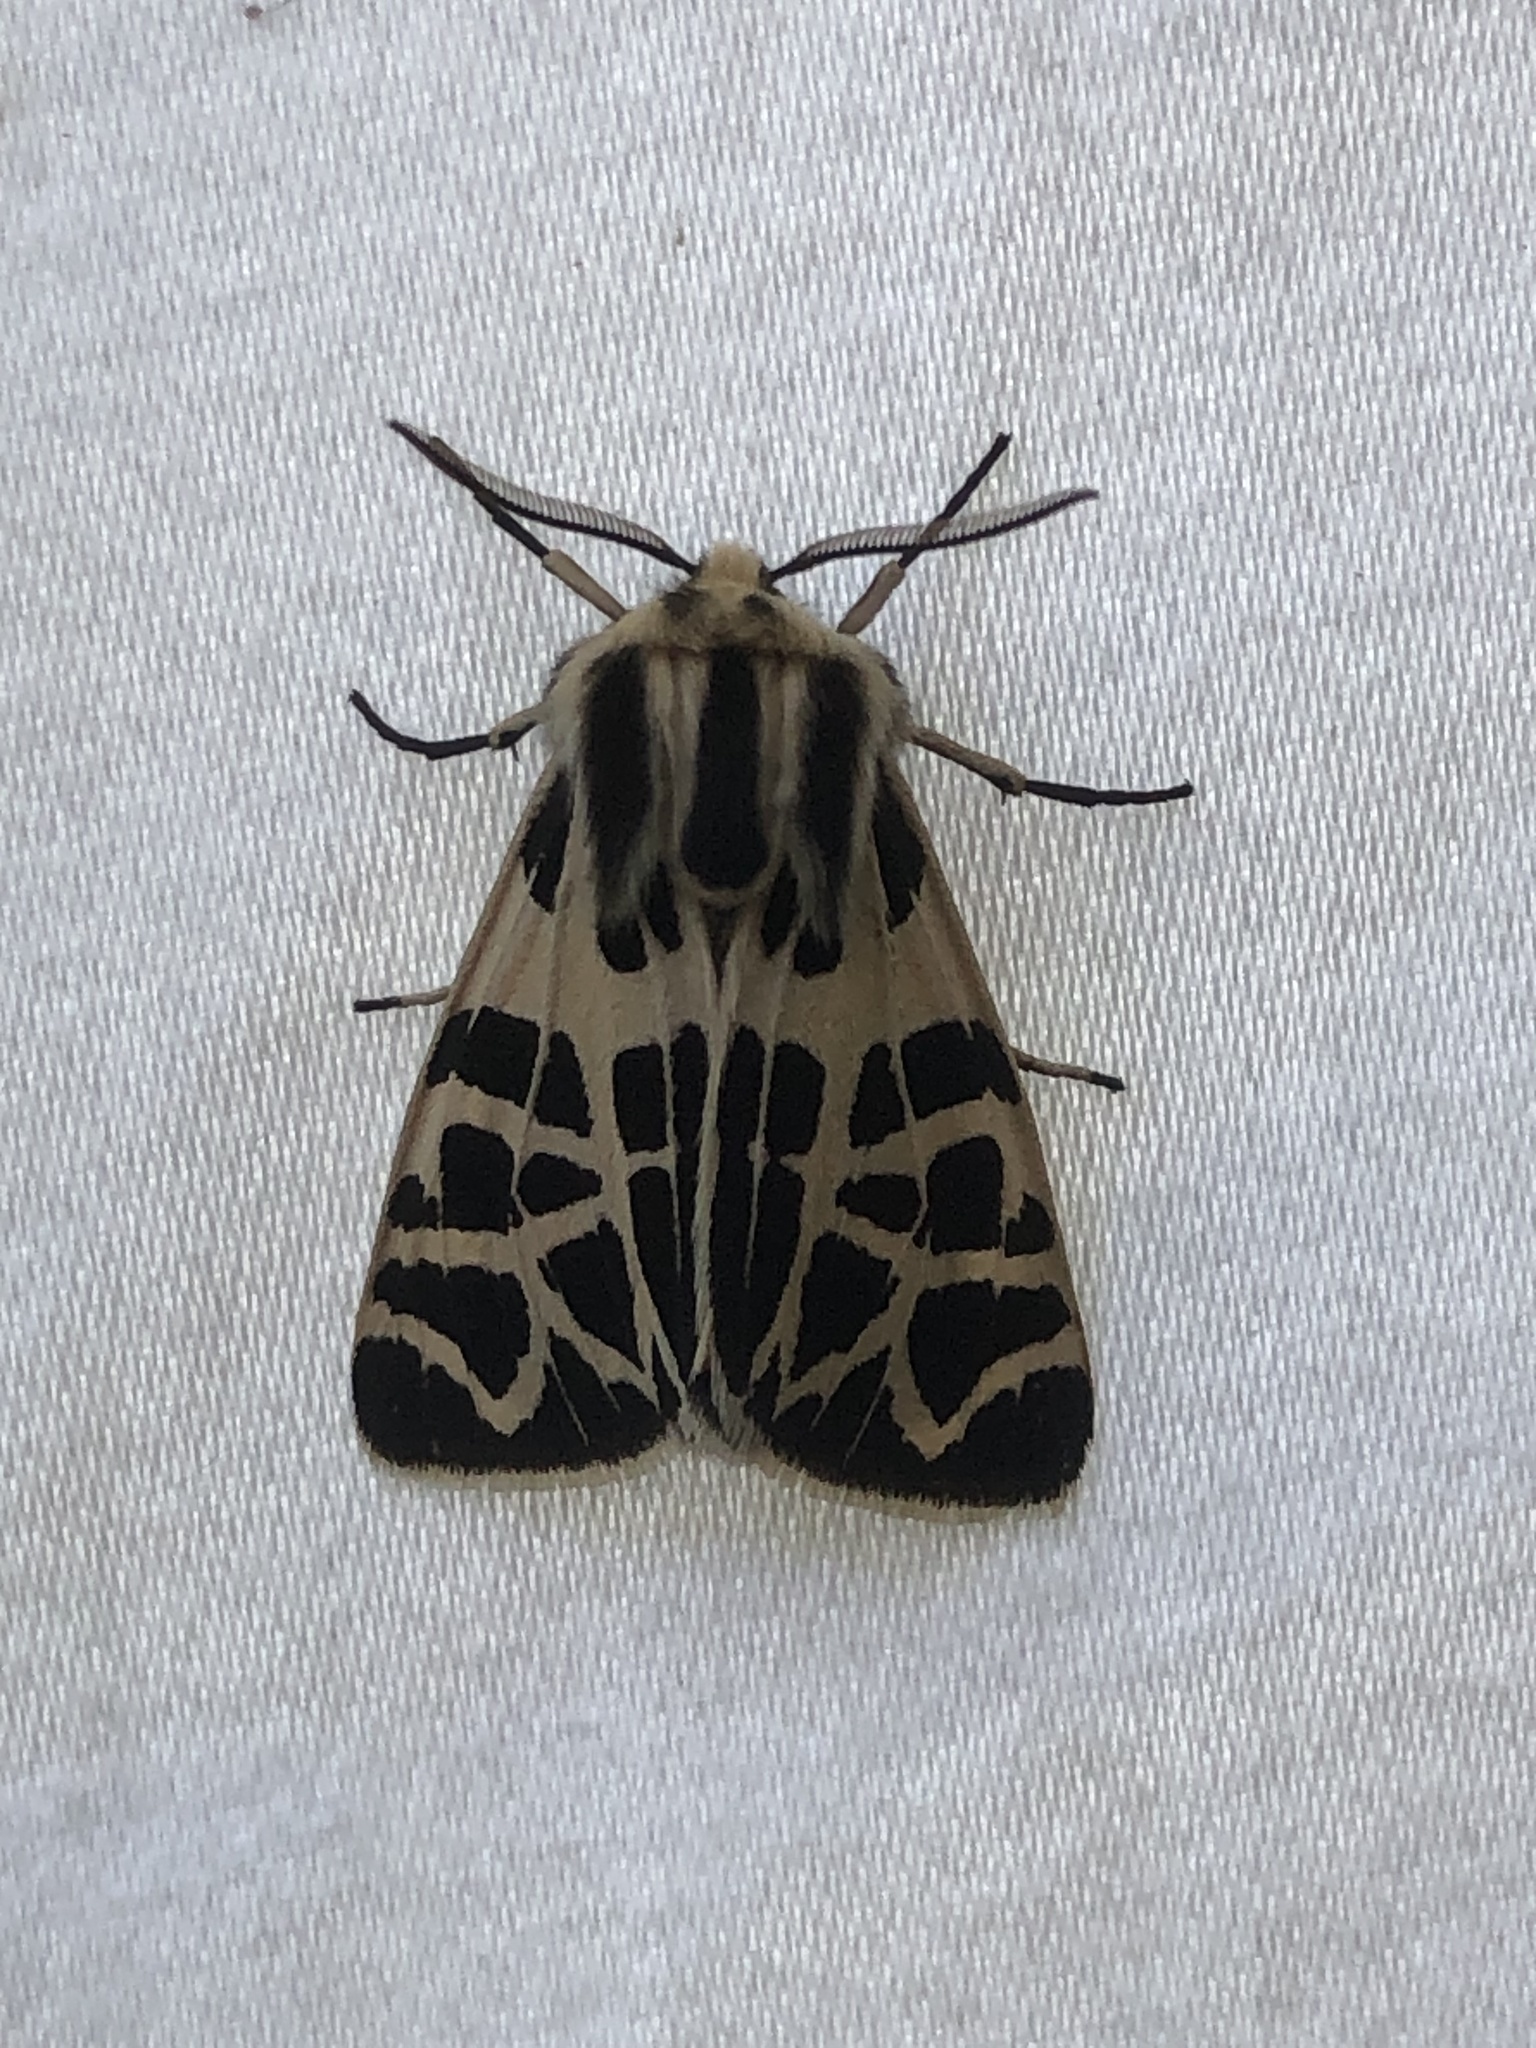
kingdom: Animalia
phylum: Arthropoda
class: Insecta
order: Lepidoptera
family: Erebidae
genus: Apantesis
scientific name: Apantesis
